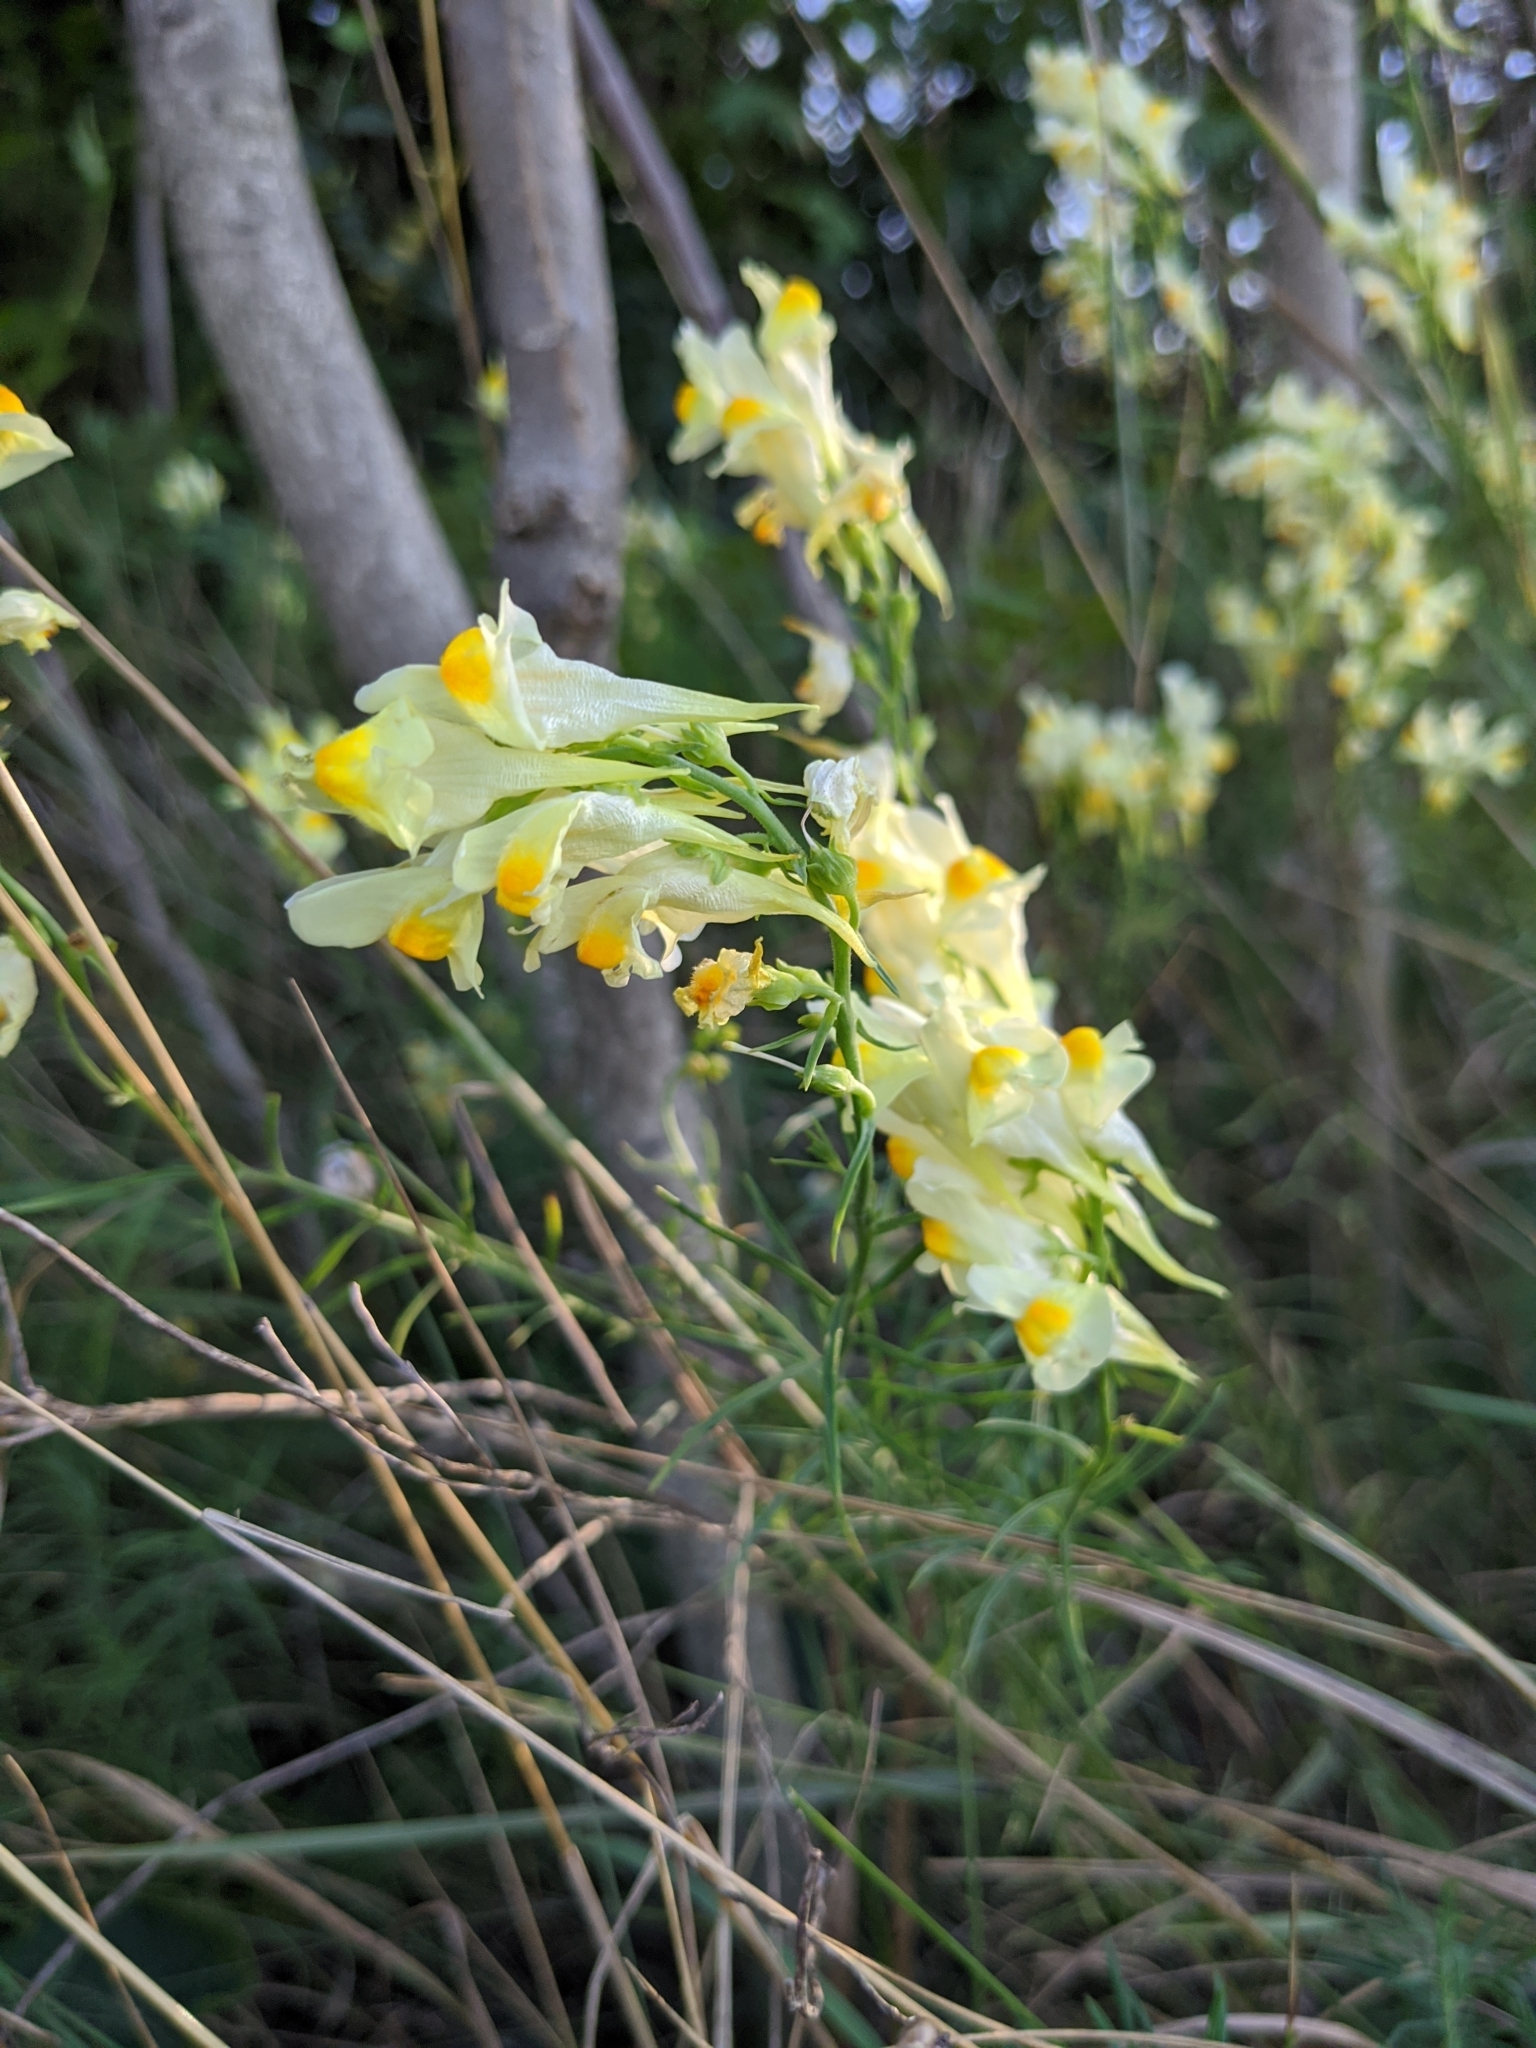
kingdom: Plantae
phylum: Tracheophyta
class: Magnoliopsida
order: Lamiales
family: Plantaginaceae
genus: Linaria
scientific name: Linaria vulgaris
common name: Butter and eggs
